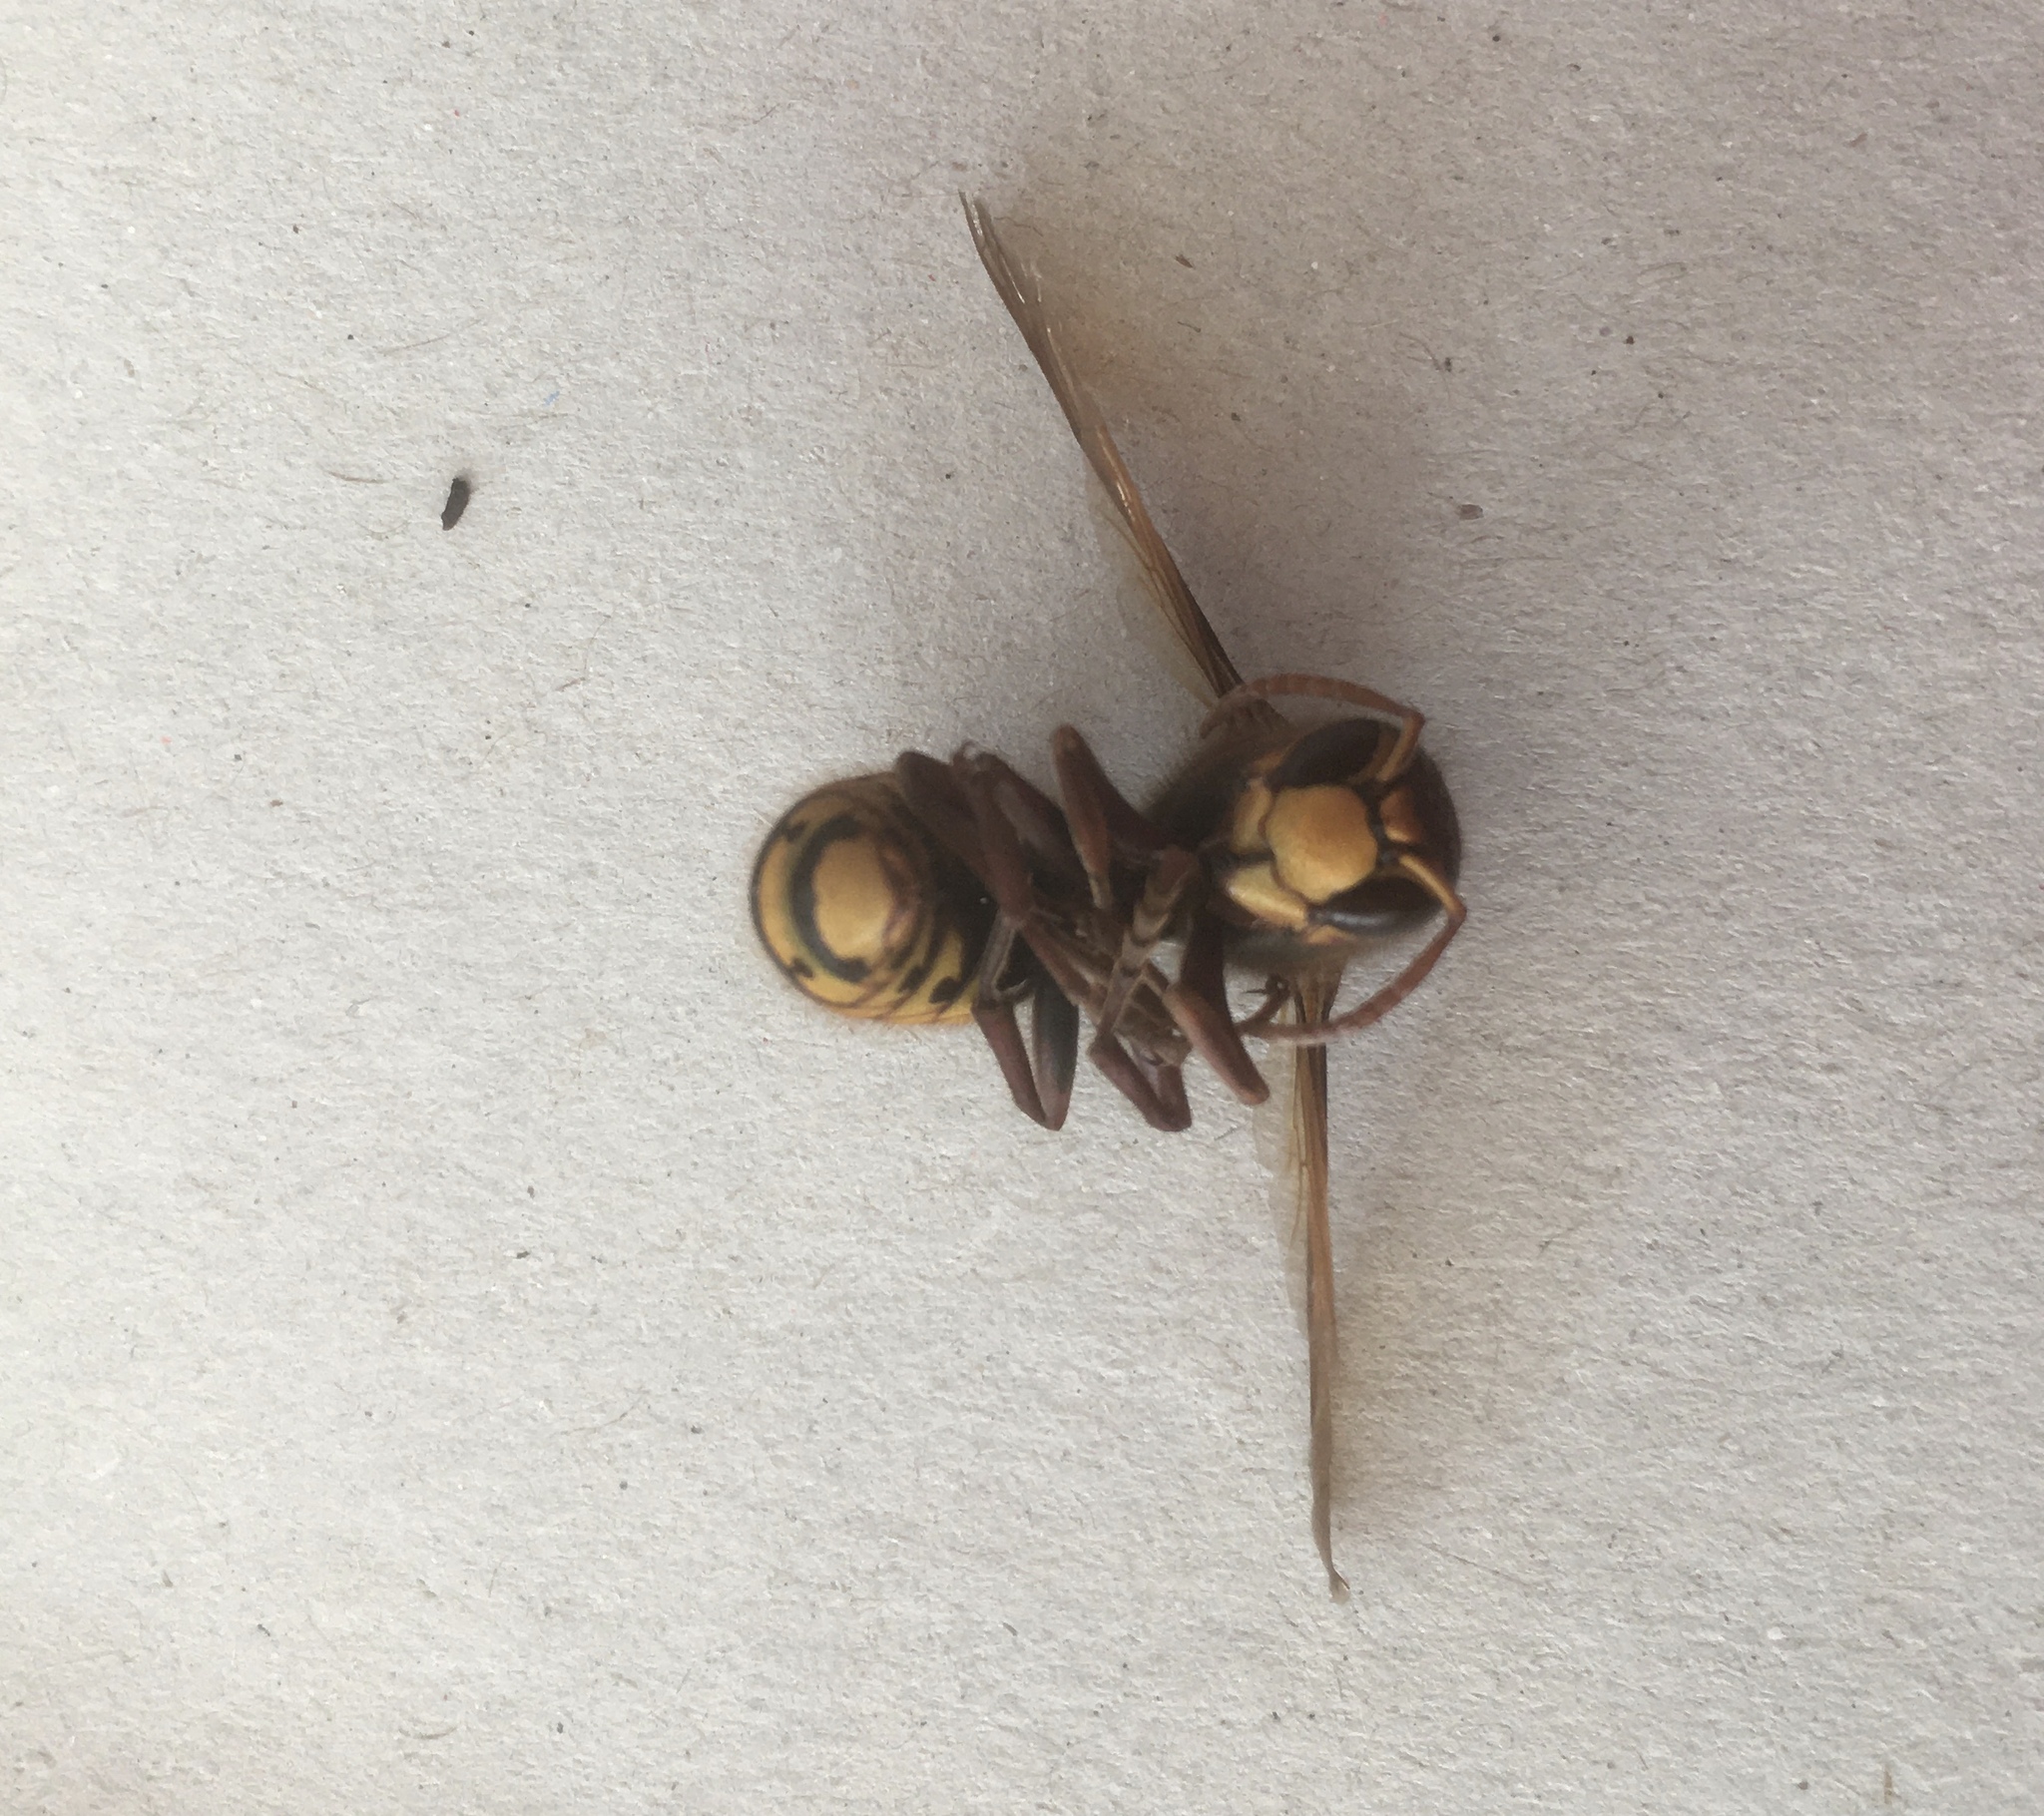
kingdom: Animalia
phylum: Arthropoda
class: Insecta
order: Hymenoptera
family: Vespidae
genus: Vespa
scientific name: Vespa crabro
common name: Hornet
